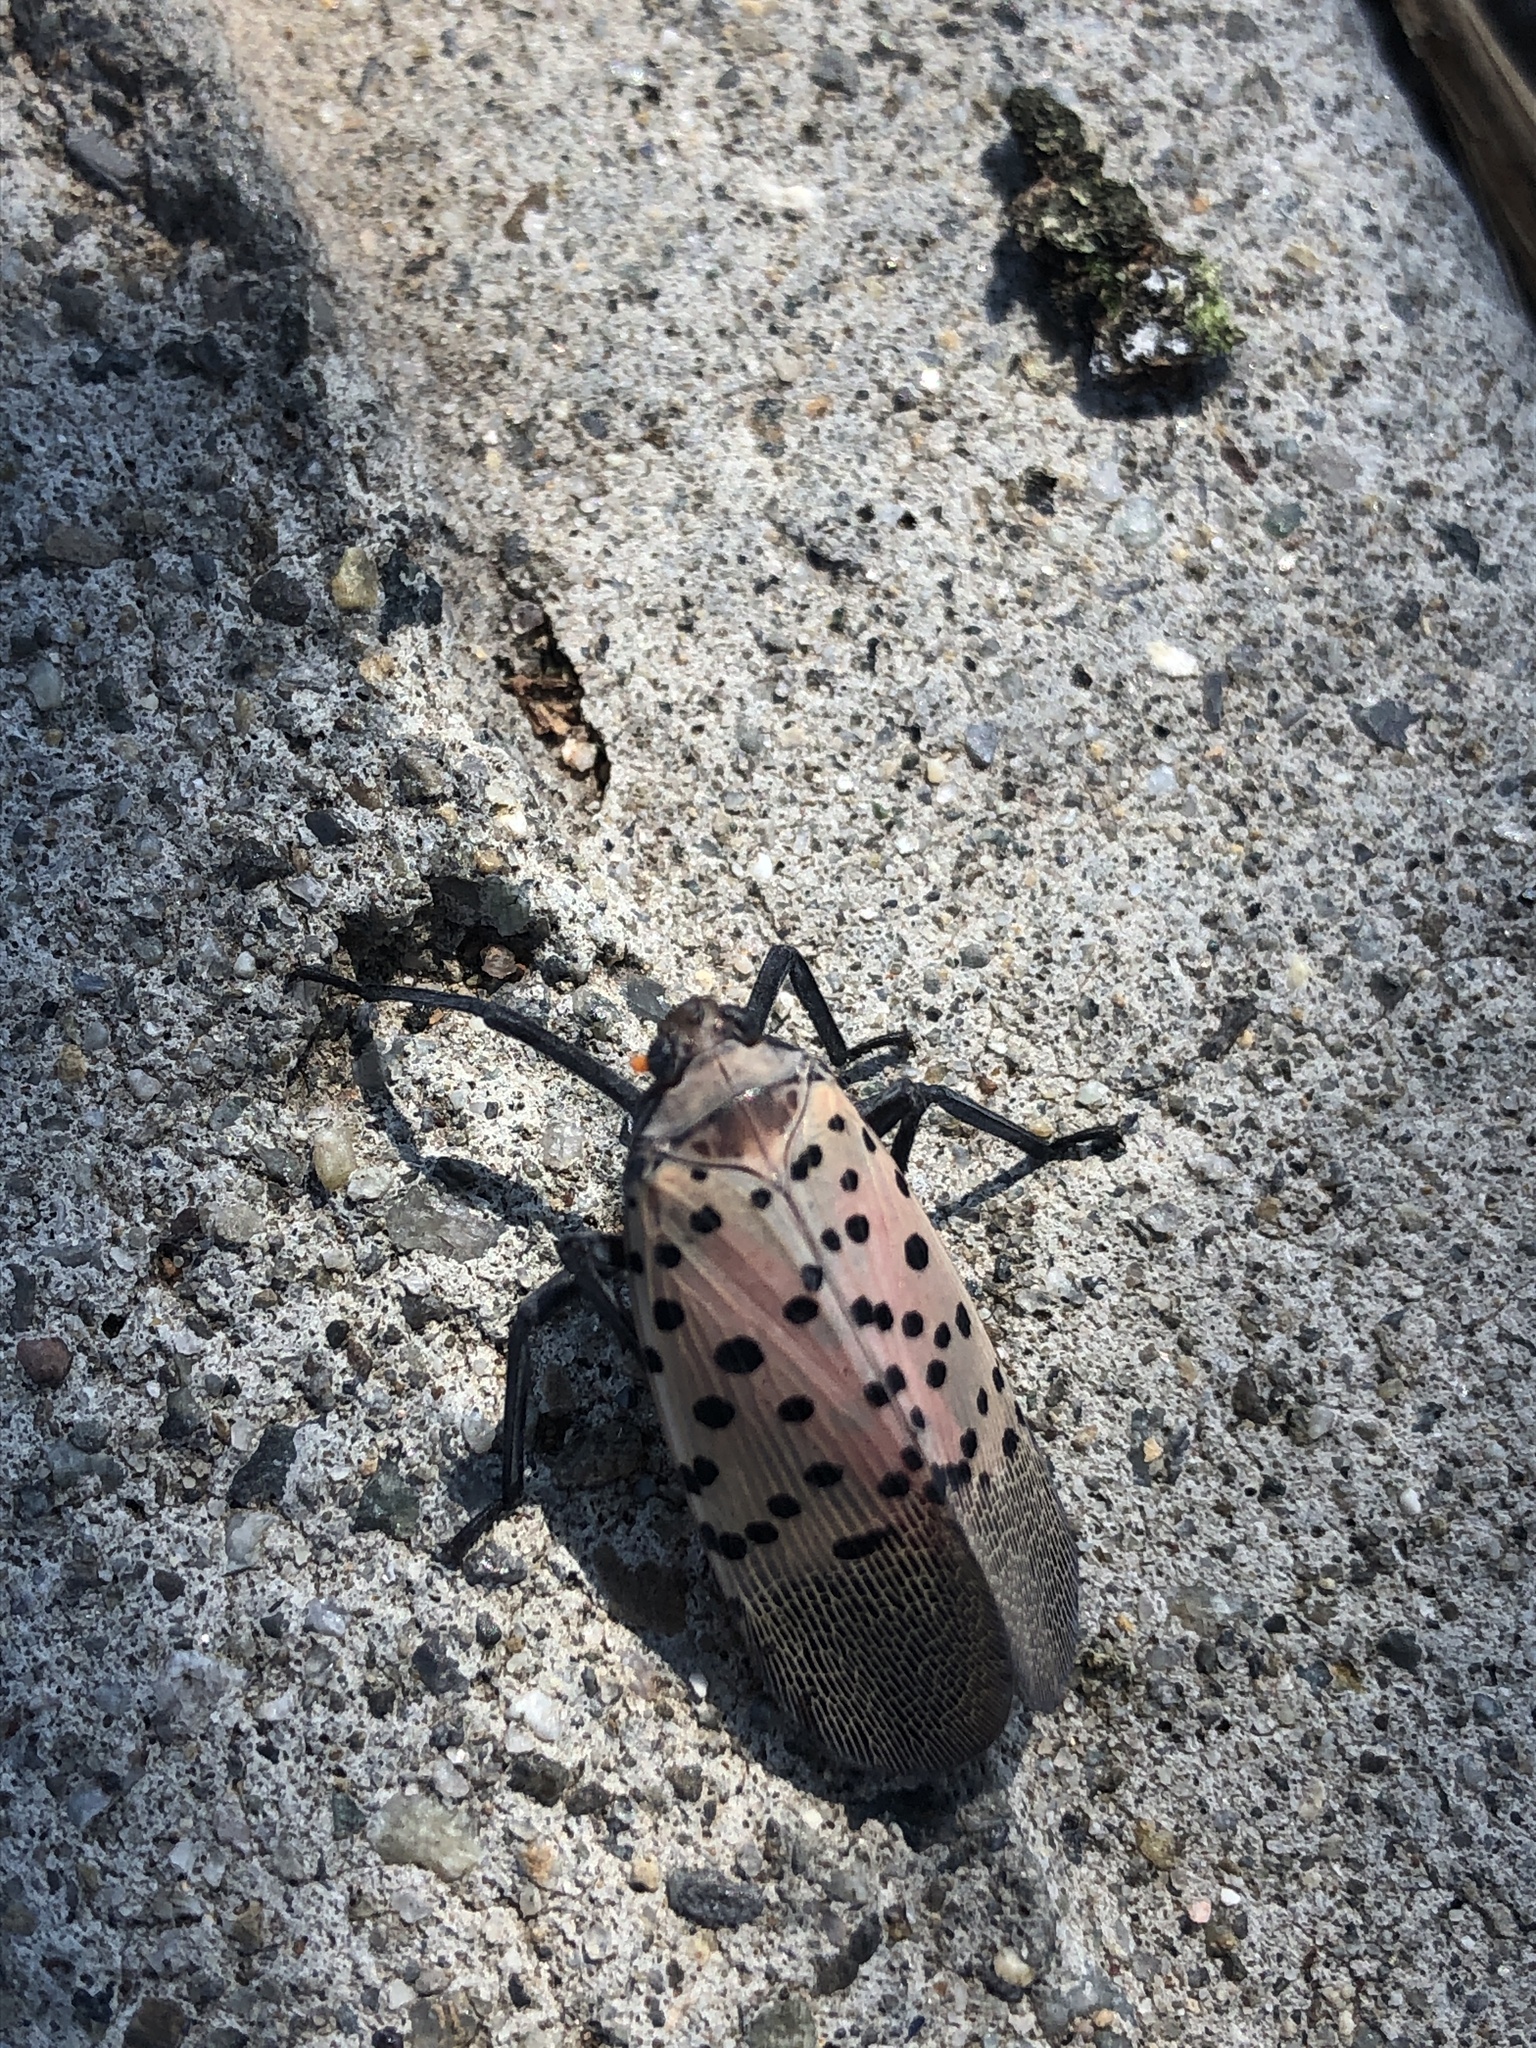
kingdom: Animalia
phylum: Arthropoda
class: Insecta
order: Hemiptera
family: Fulgoridae
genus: Lycorma
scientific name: Lycorma delicatula
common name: Spotted lanternfly
